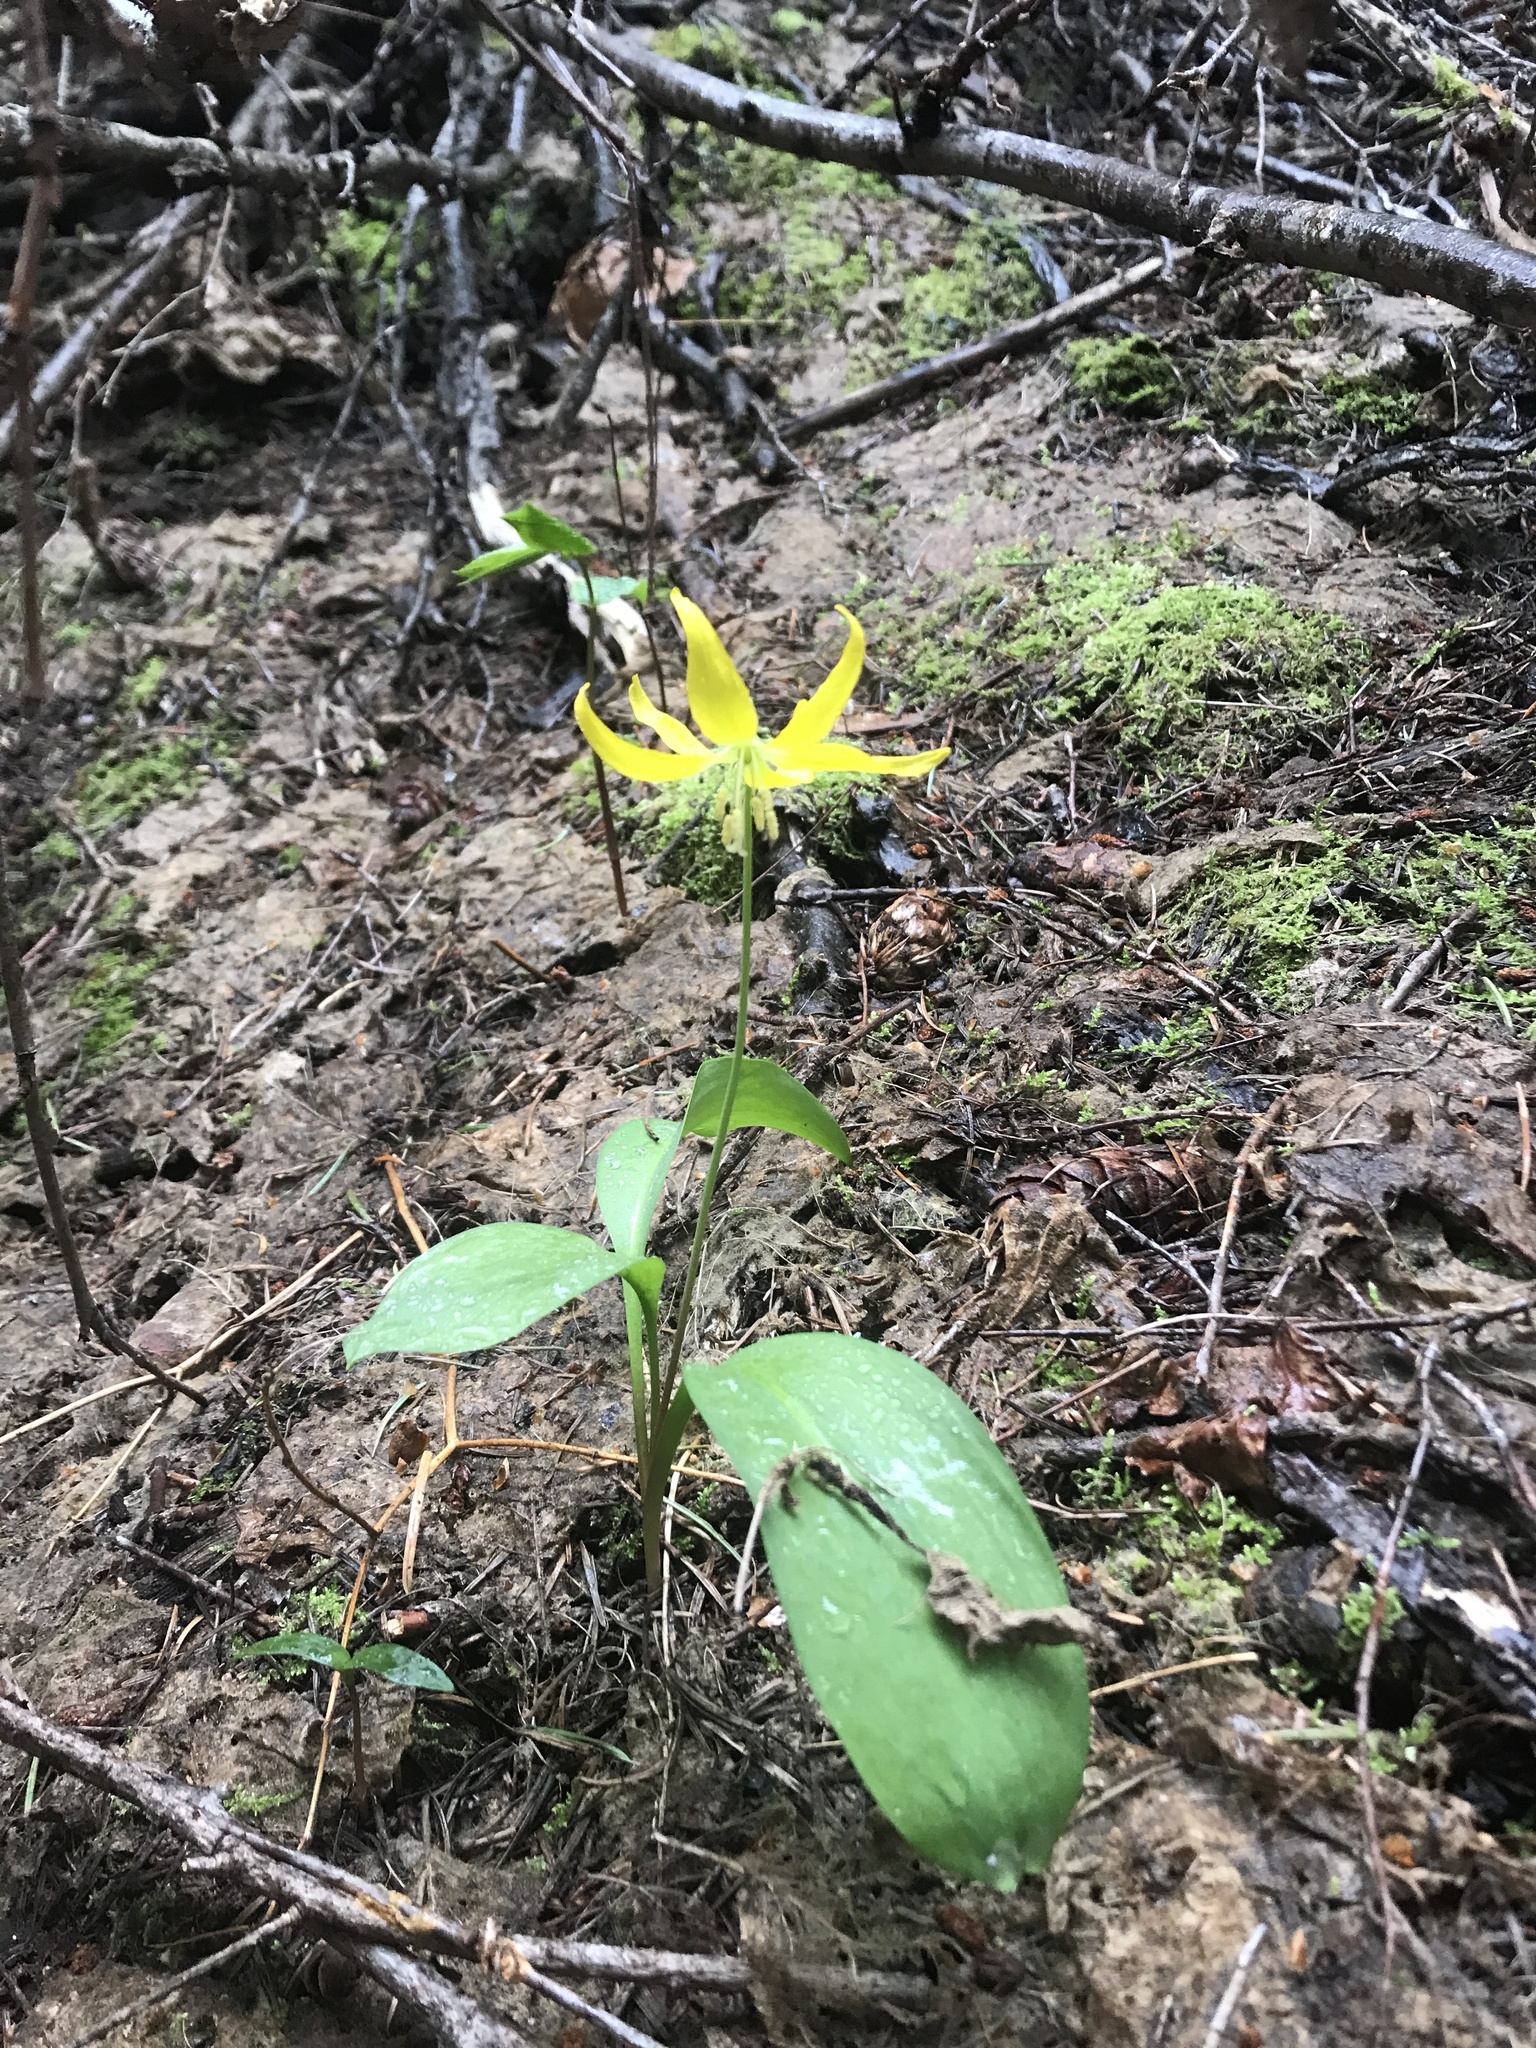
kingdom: Plantae
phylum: Tracheophyta
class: Liliopsida
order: Liliales
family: Liliaceae
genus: Erythronium
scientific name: Erythronium grandiflorum
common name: Avalanche-lily
